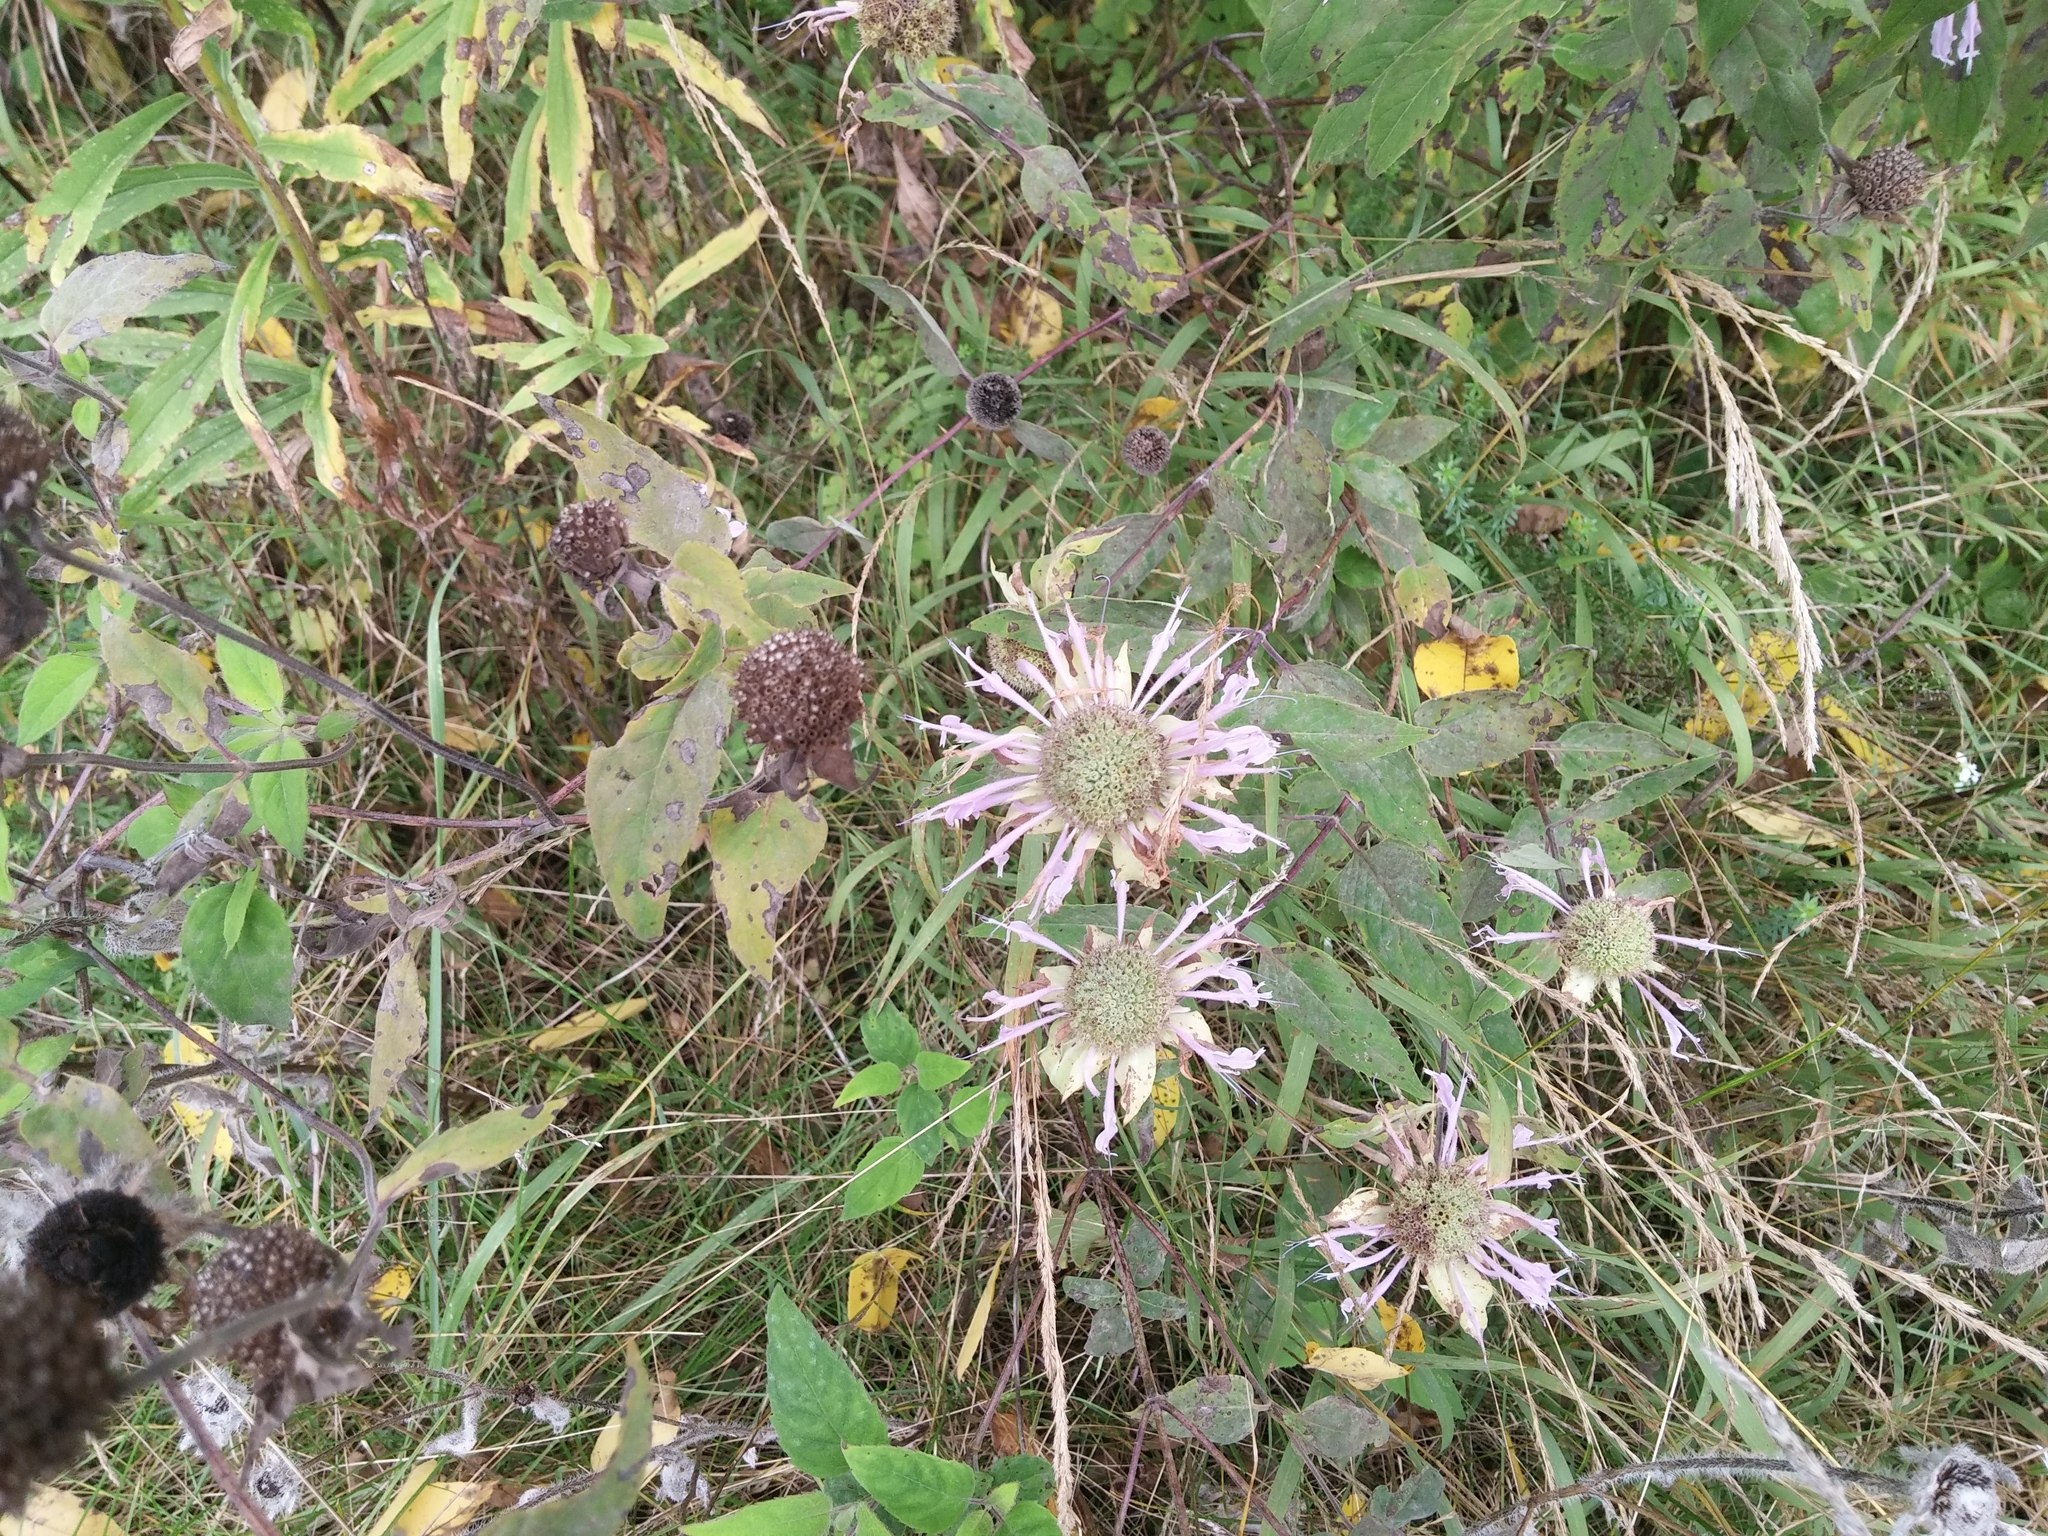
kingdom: Plantae
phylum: Tracheophyta
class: Magnoliopsida
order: Lamiales
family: Lamiaceae
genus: Monarda
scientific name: Monarda fistulosa
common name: Purple beebalm
